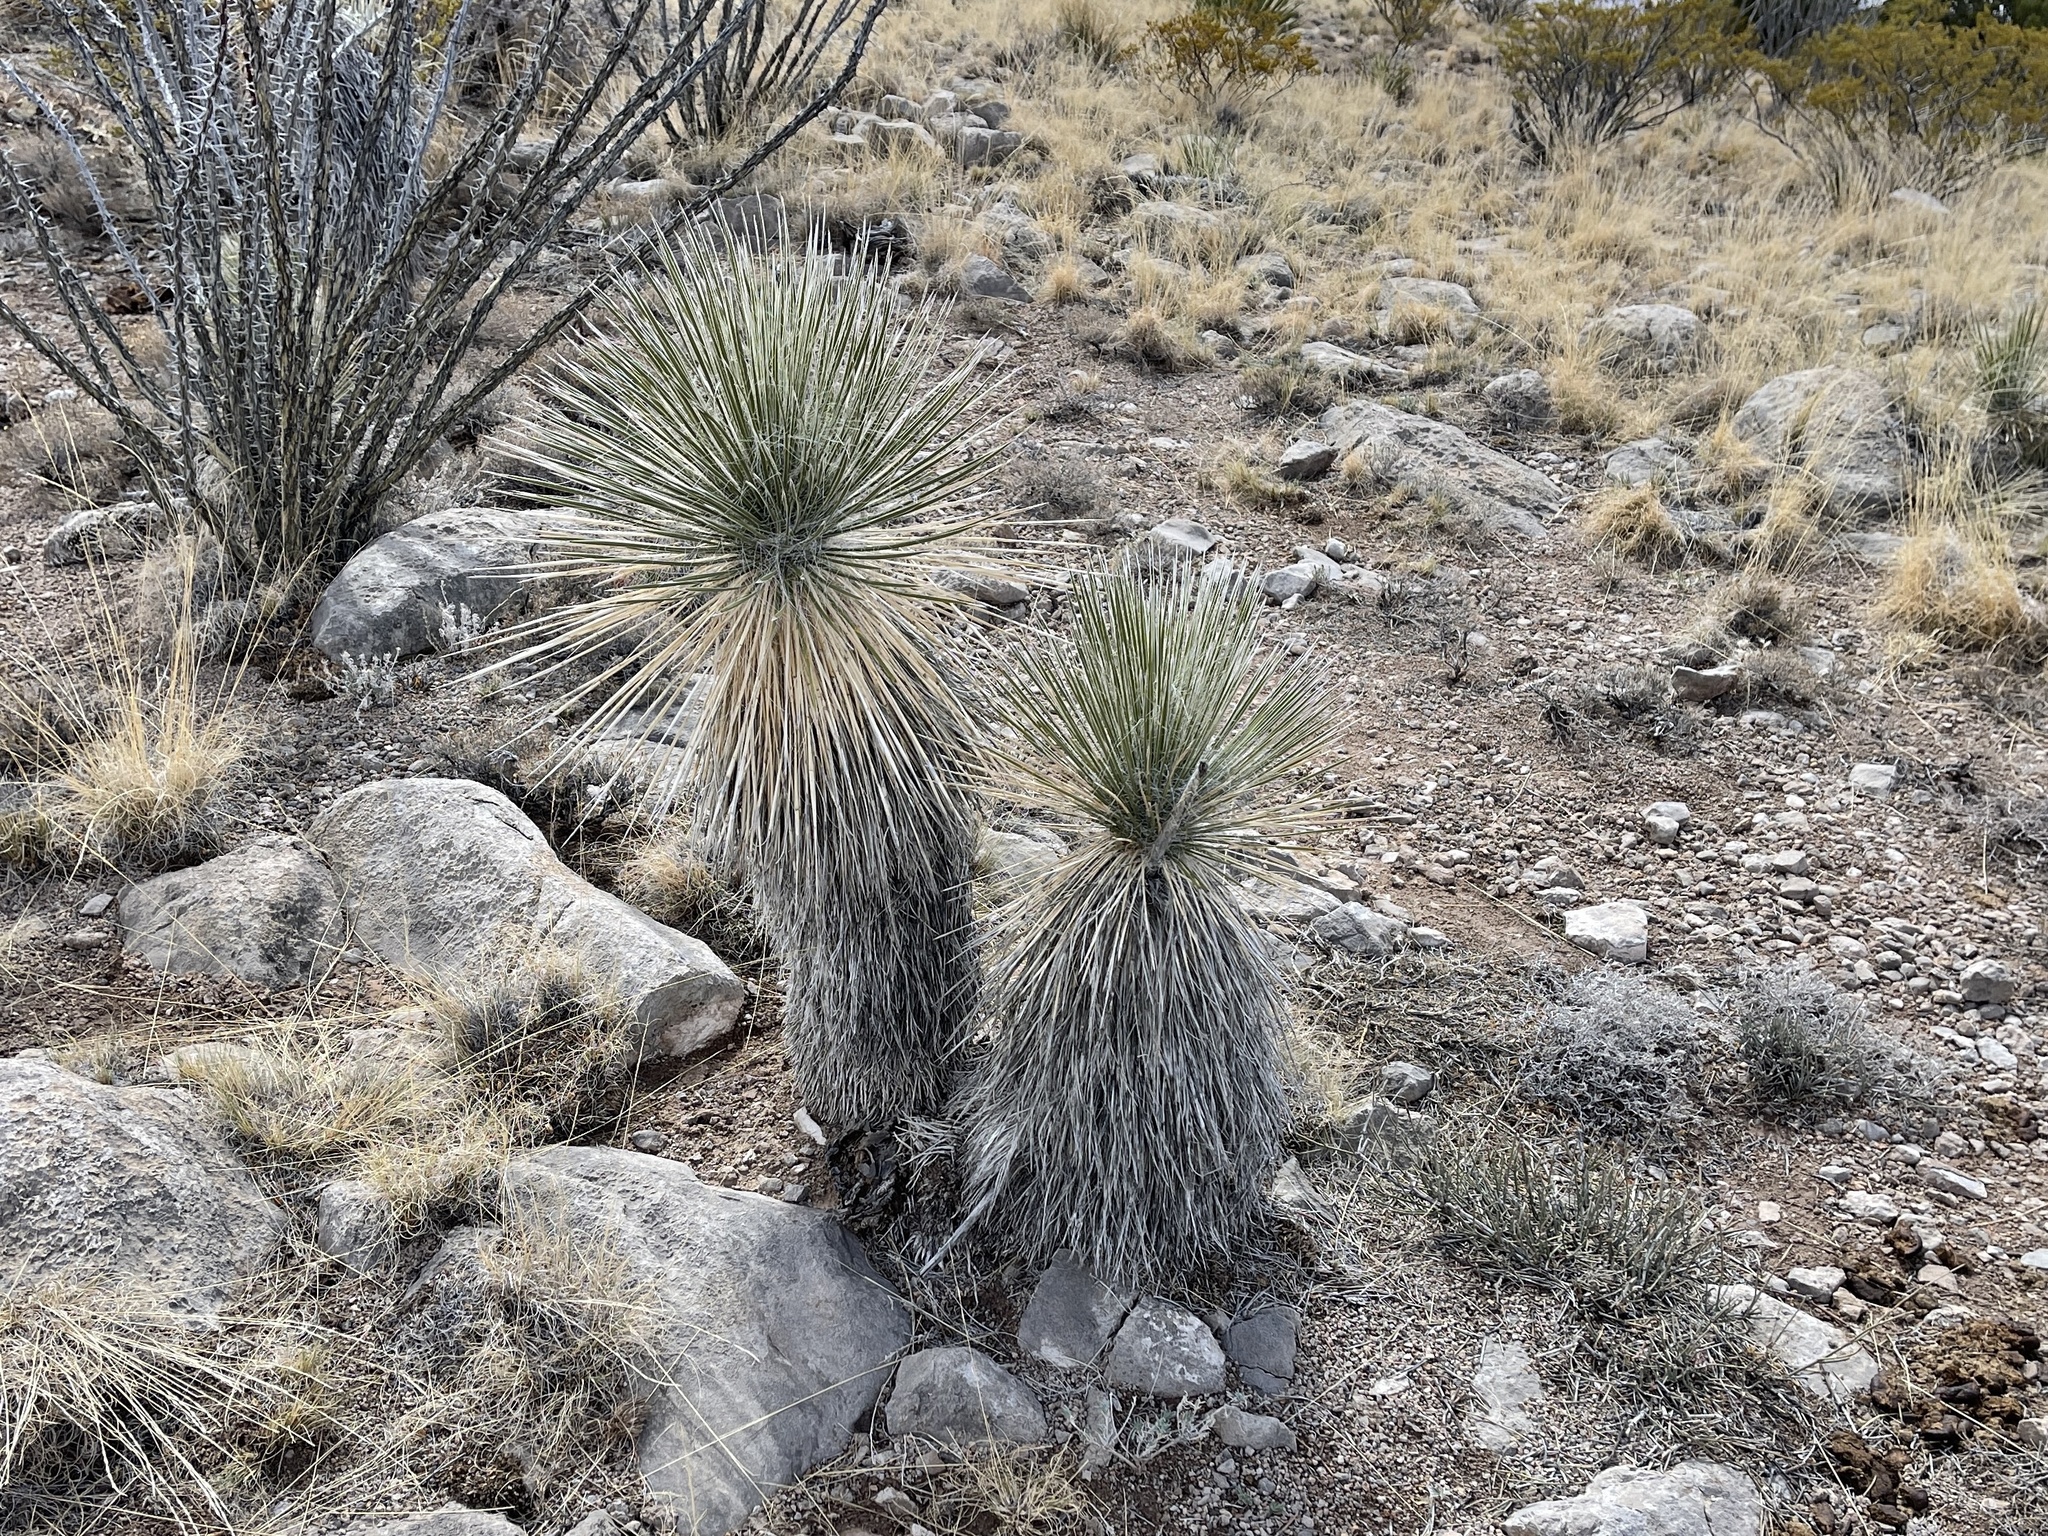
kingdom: Plantae
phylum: Tracheophyta
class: Liliopsida
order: Asparagales
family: Asparagaceae
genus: Yucca
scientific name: Yucca elata
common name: Palmella
